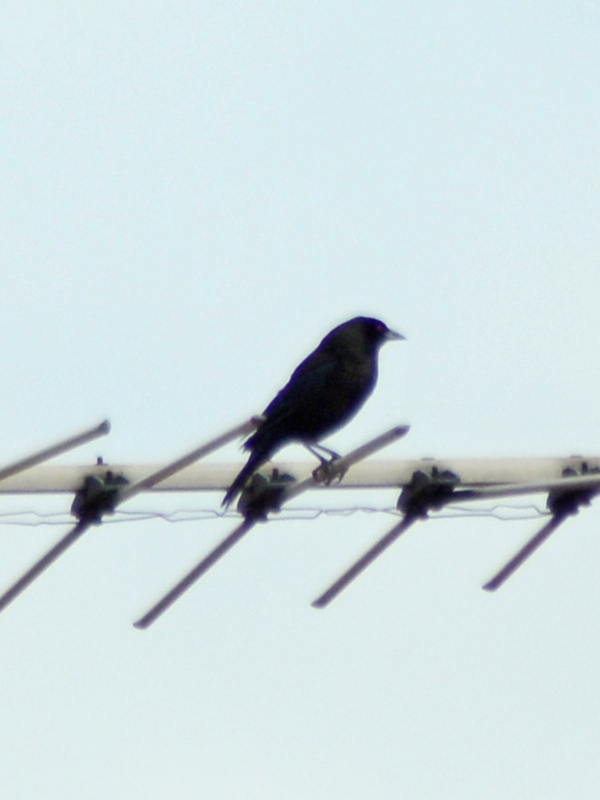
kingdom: Animalia
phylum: Chordata
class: Aves
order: Passeriformes
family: Icteridae
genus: Molothrus
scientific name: Molothrus aeneus
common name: Bronzed cowbird
